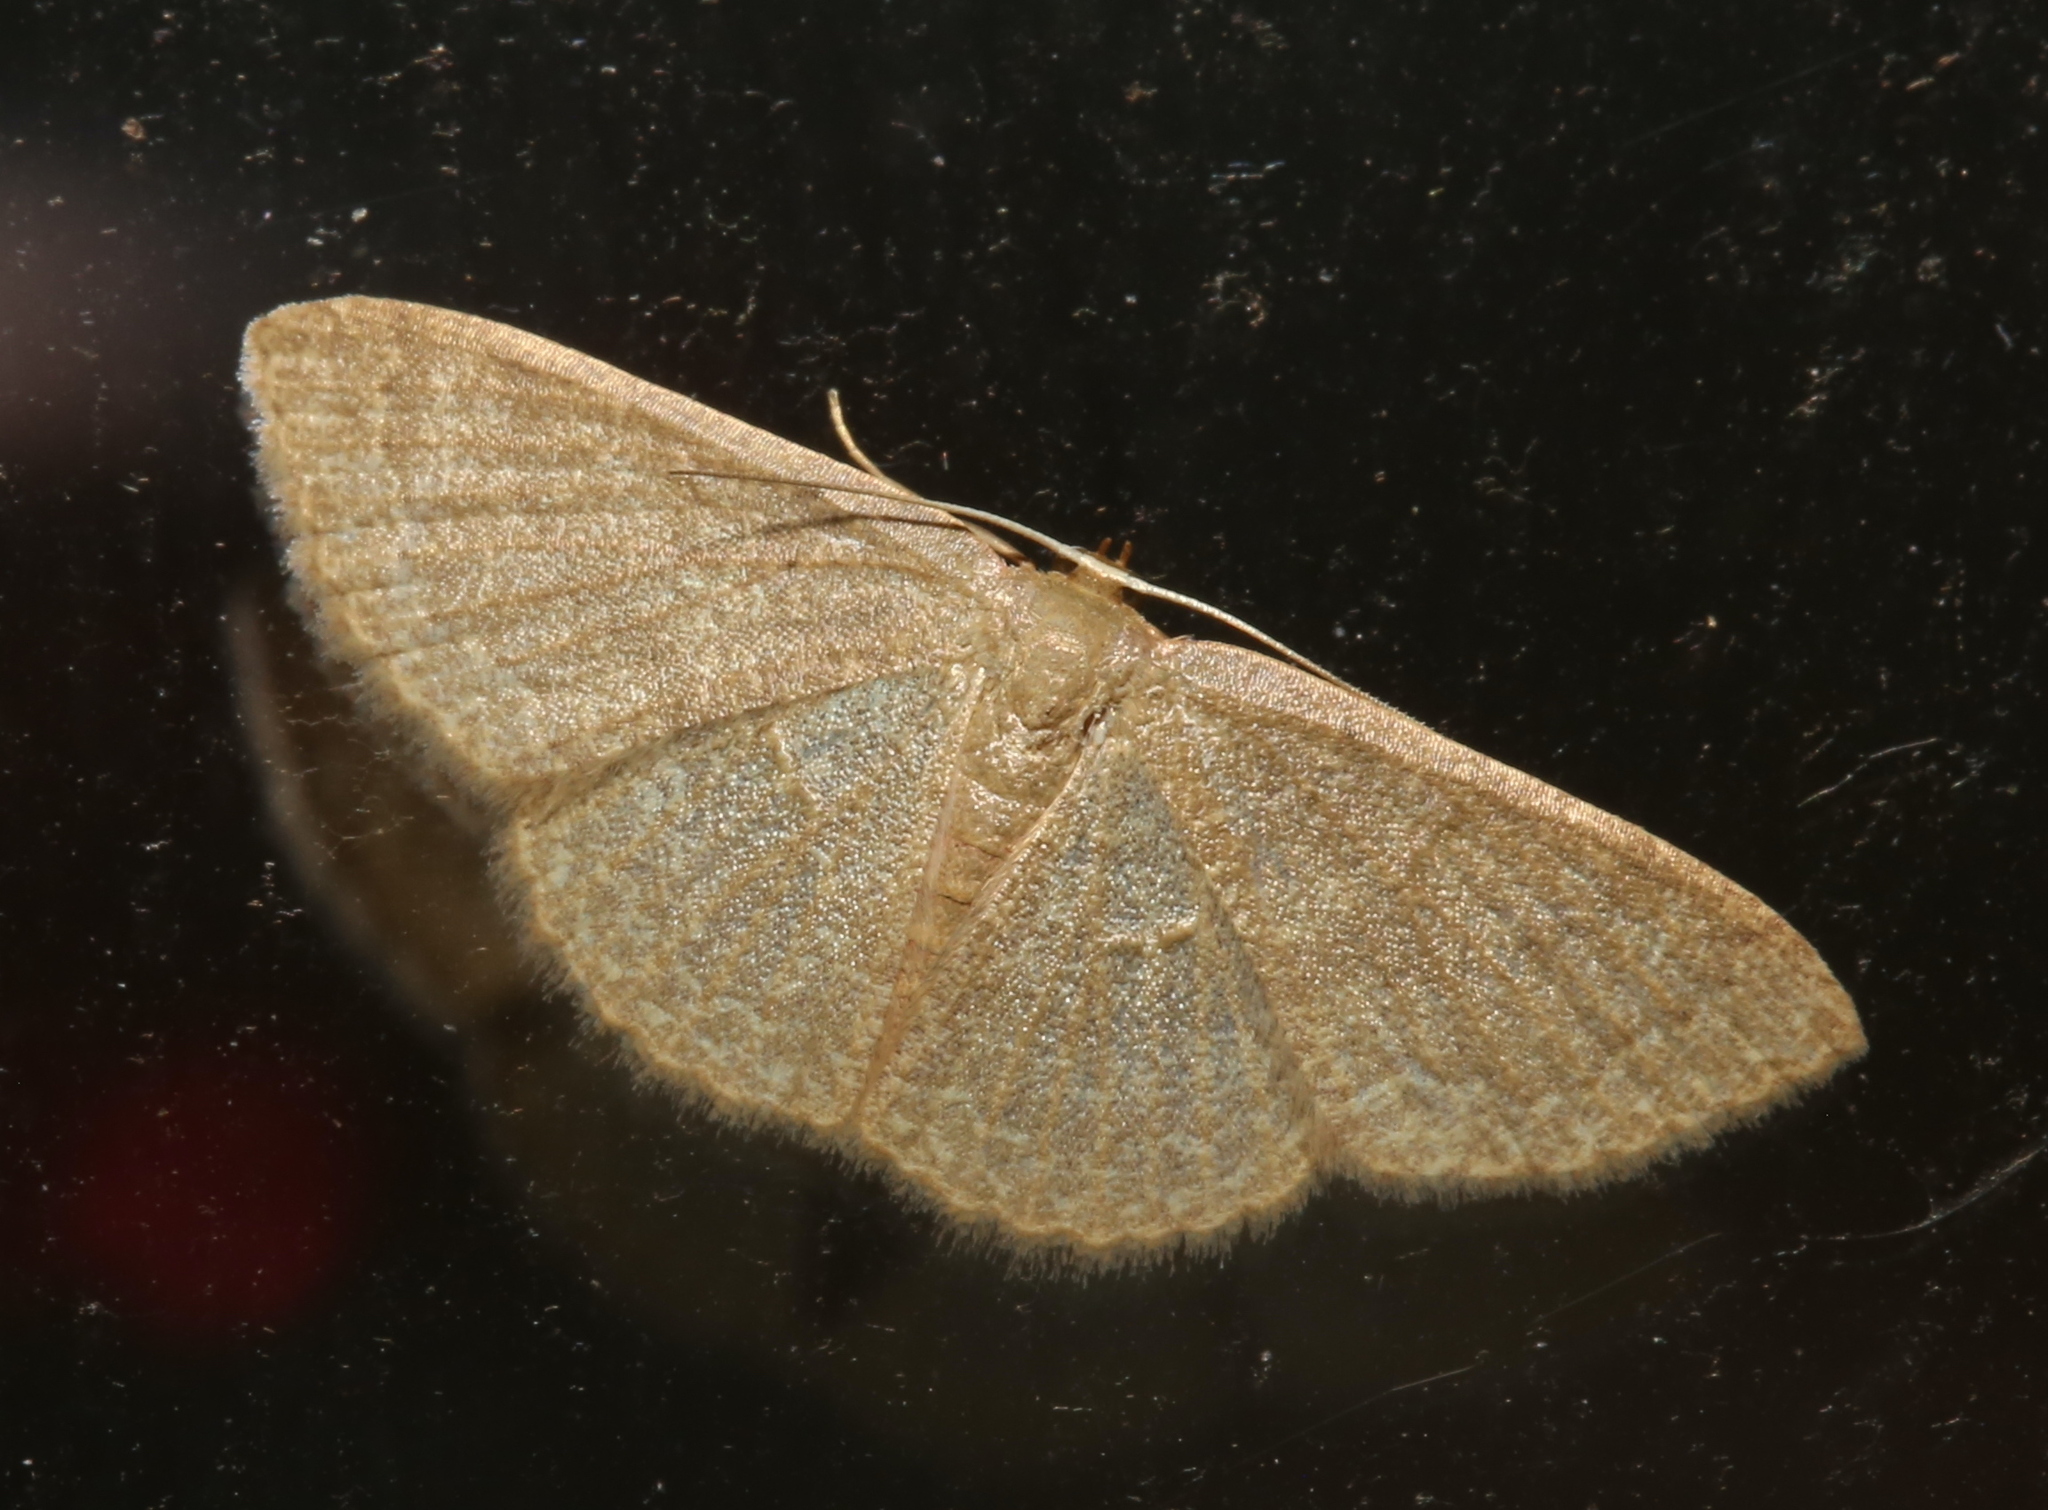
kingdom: Animalia
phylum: Arthropoda
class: Insecta
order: Lepidoptera
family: Geometridae
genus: Pleuroprucha
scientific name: Pleuroprucha insulsaria
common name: Common tan wave
